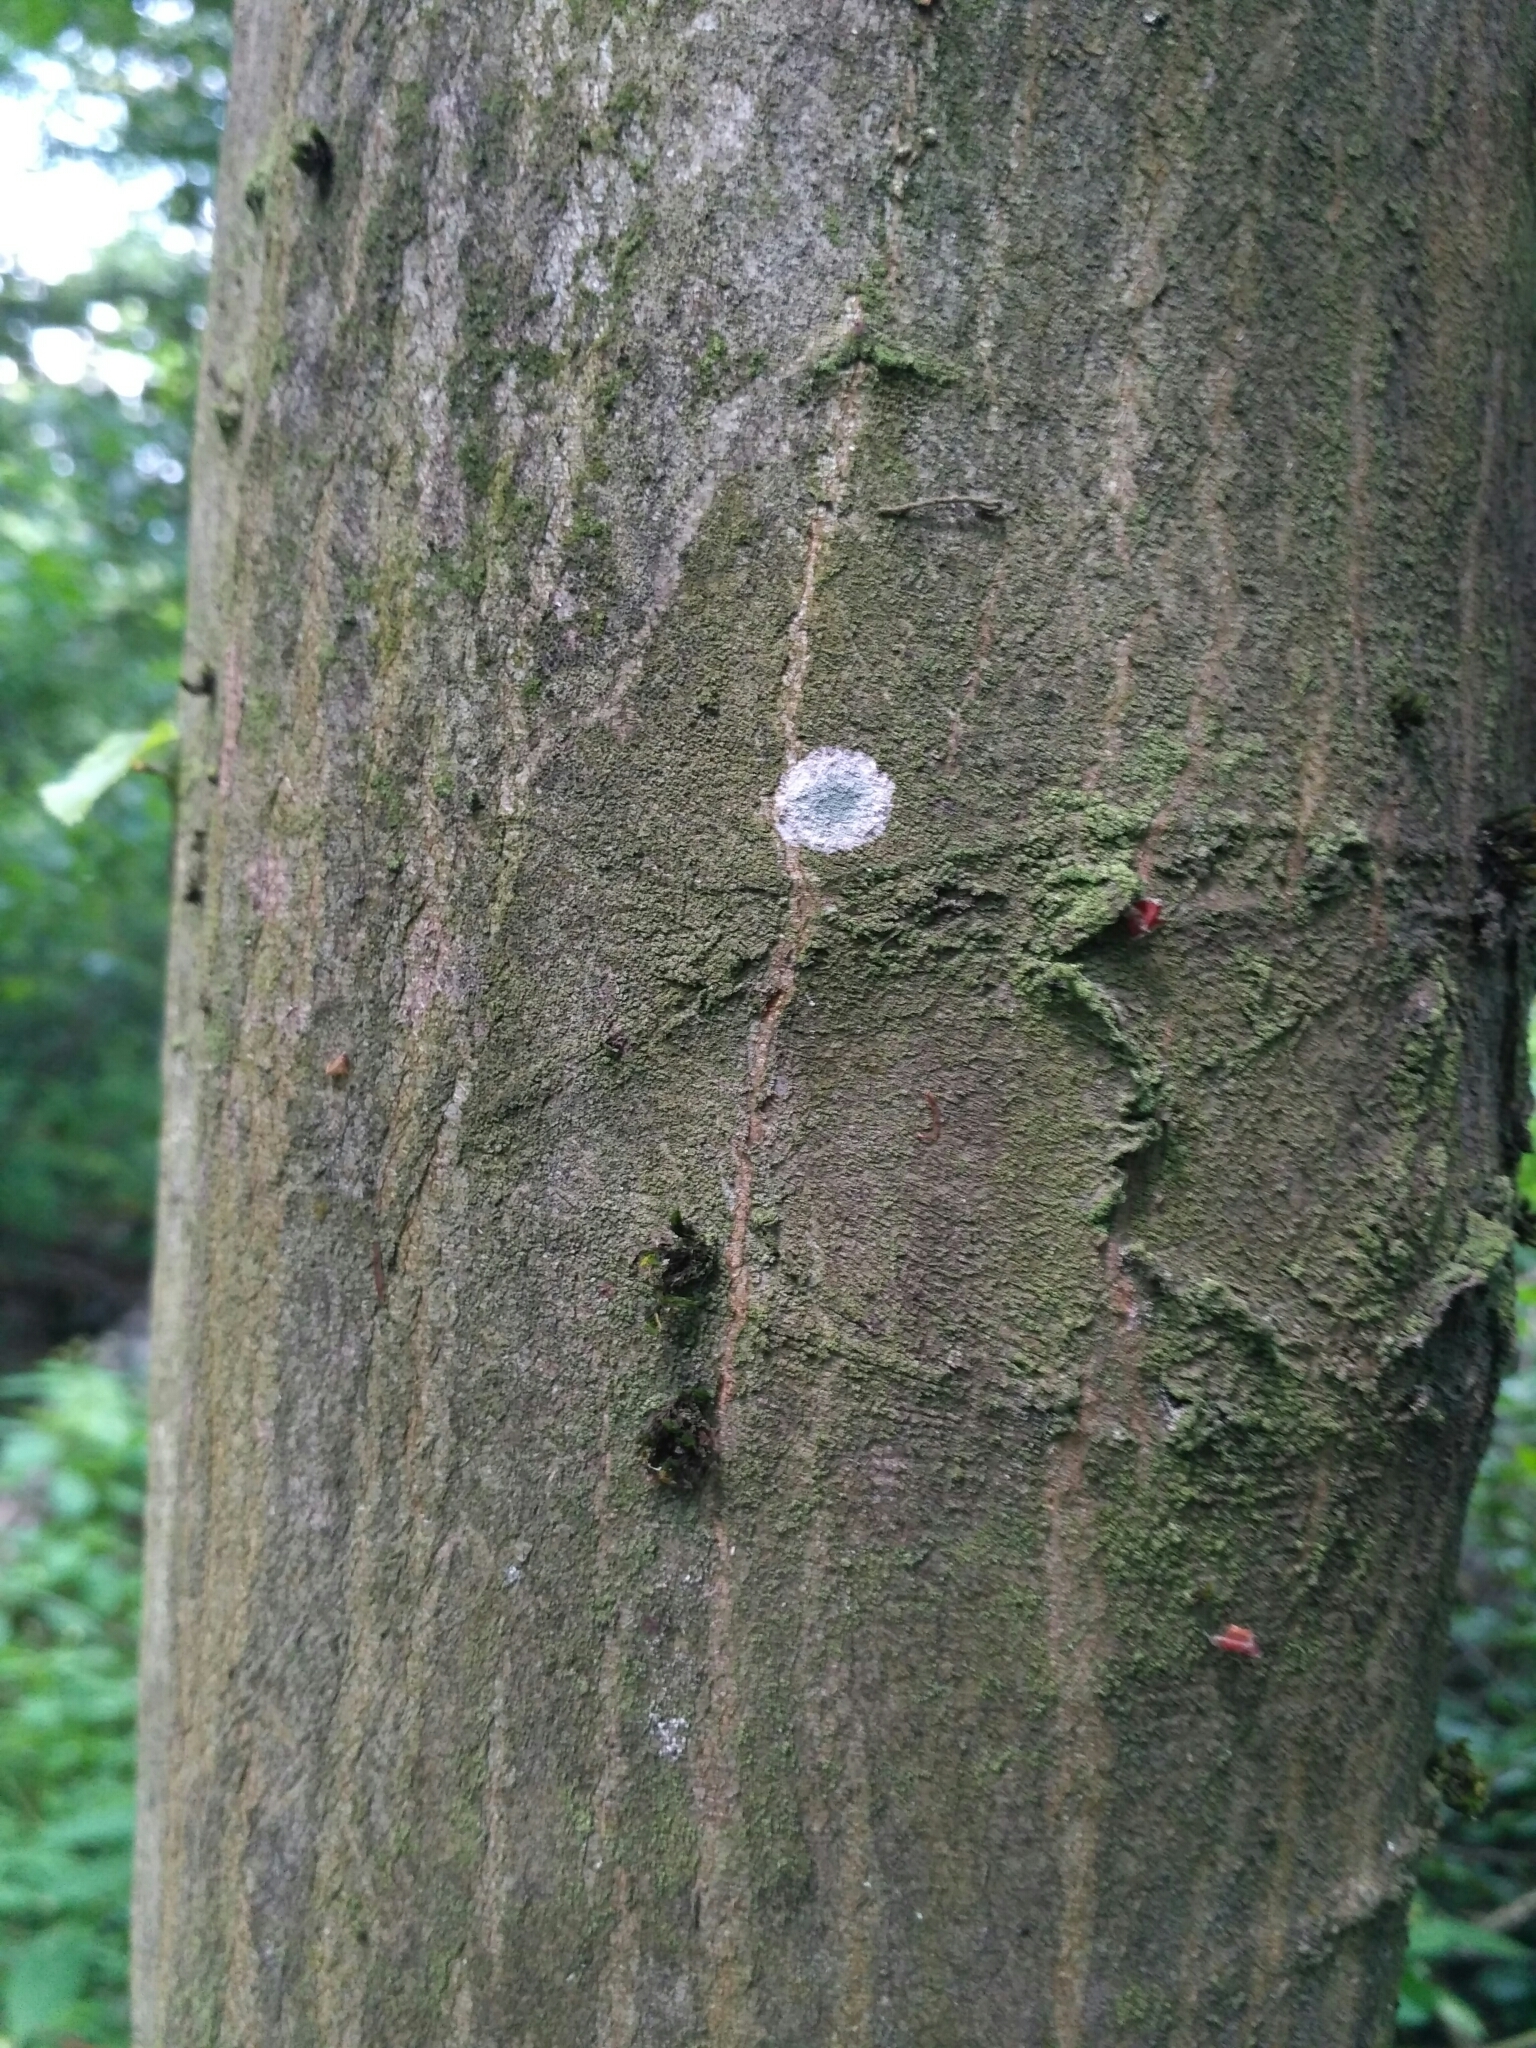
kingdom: Fungi
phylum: Ascomycota
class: Lecanoromycetes
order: Ostropales
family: Phlyctidaceae
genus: Phlyctis
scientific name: Phlyctis argena
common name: Whitewash lichen
